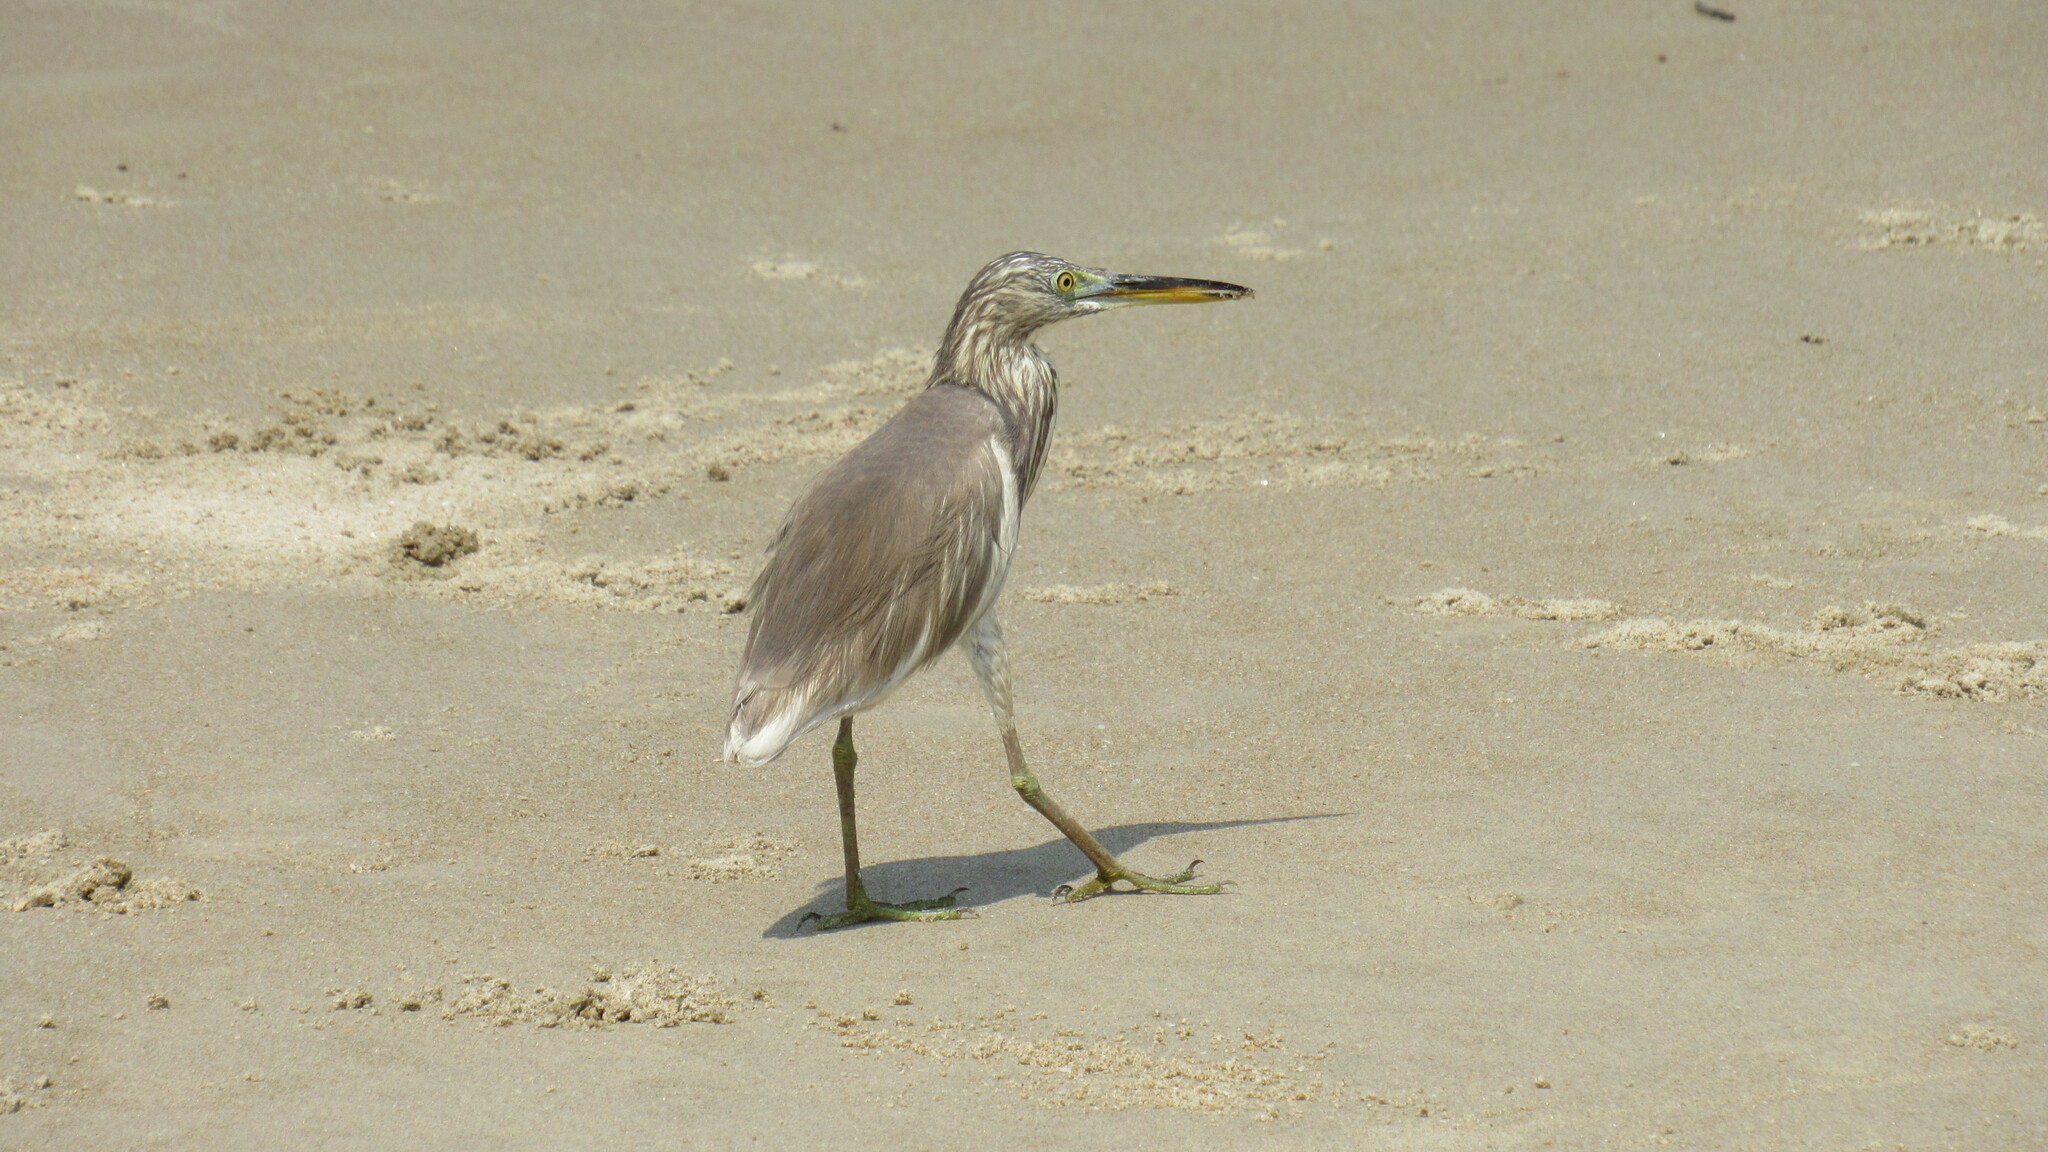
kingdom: Animalia
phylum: Chordata
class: Aves
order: Pelecaniformes
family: Ardeidae
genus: Ardeola
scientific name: Ardeola grayii
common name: Indian pond heron
